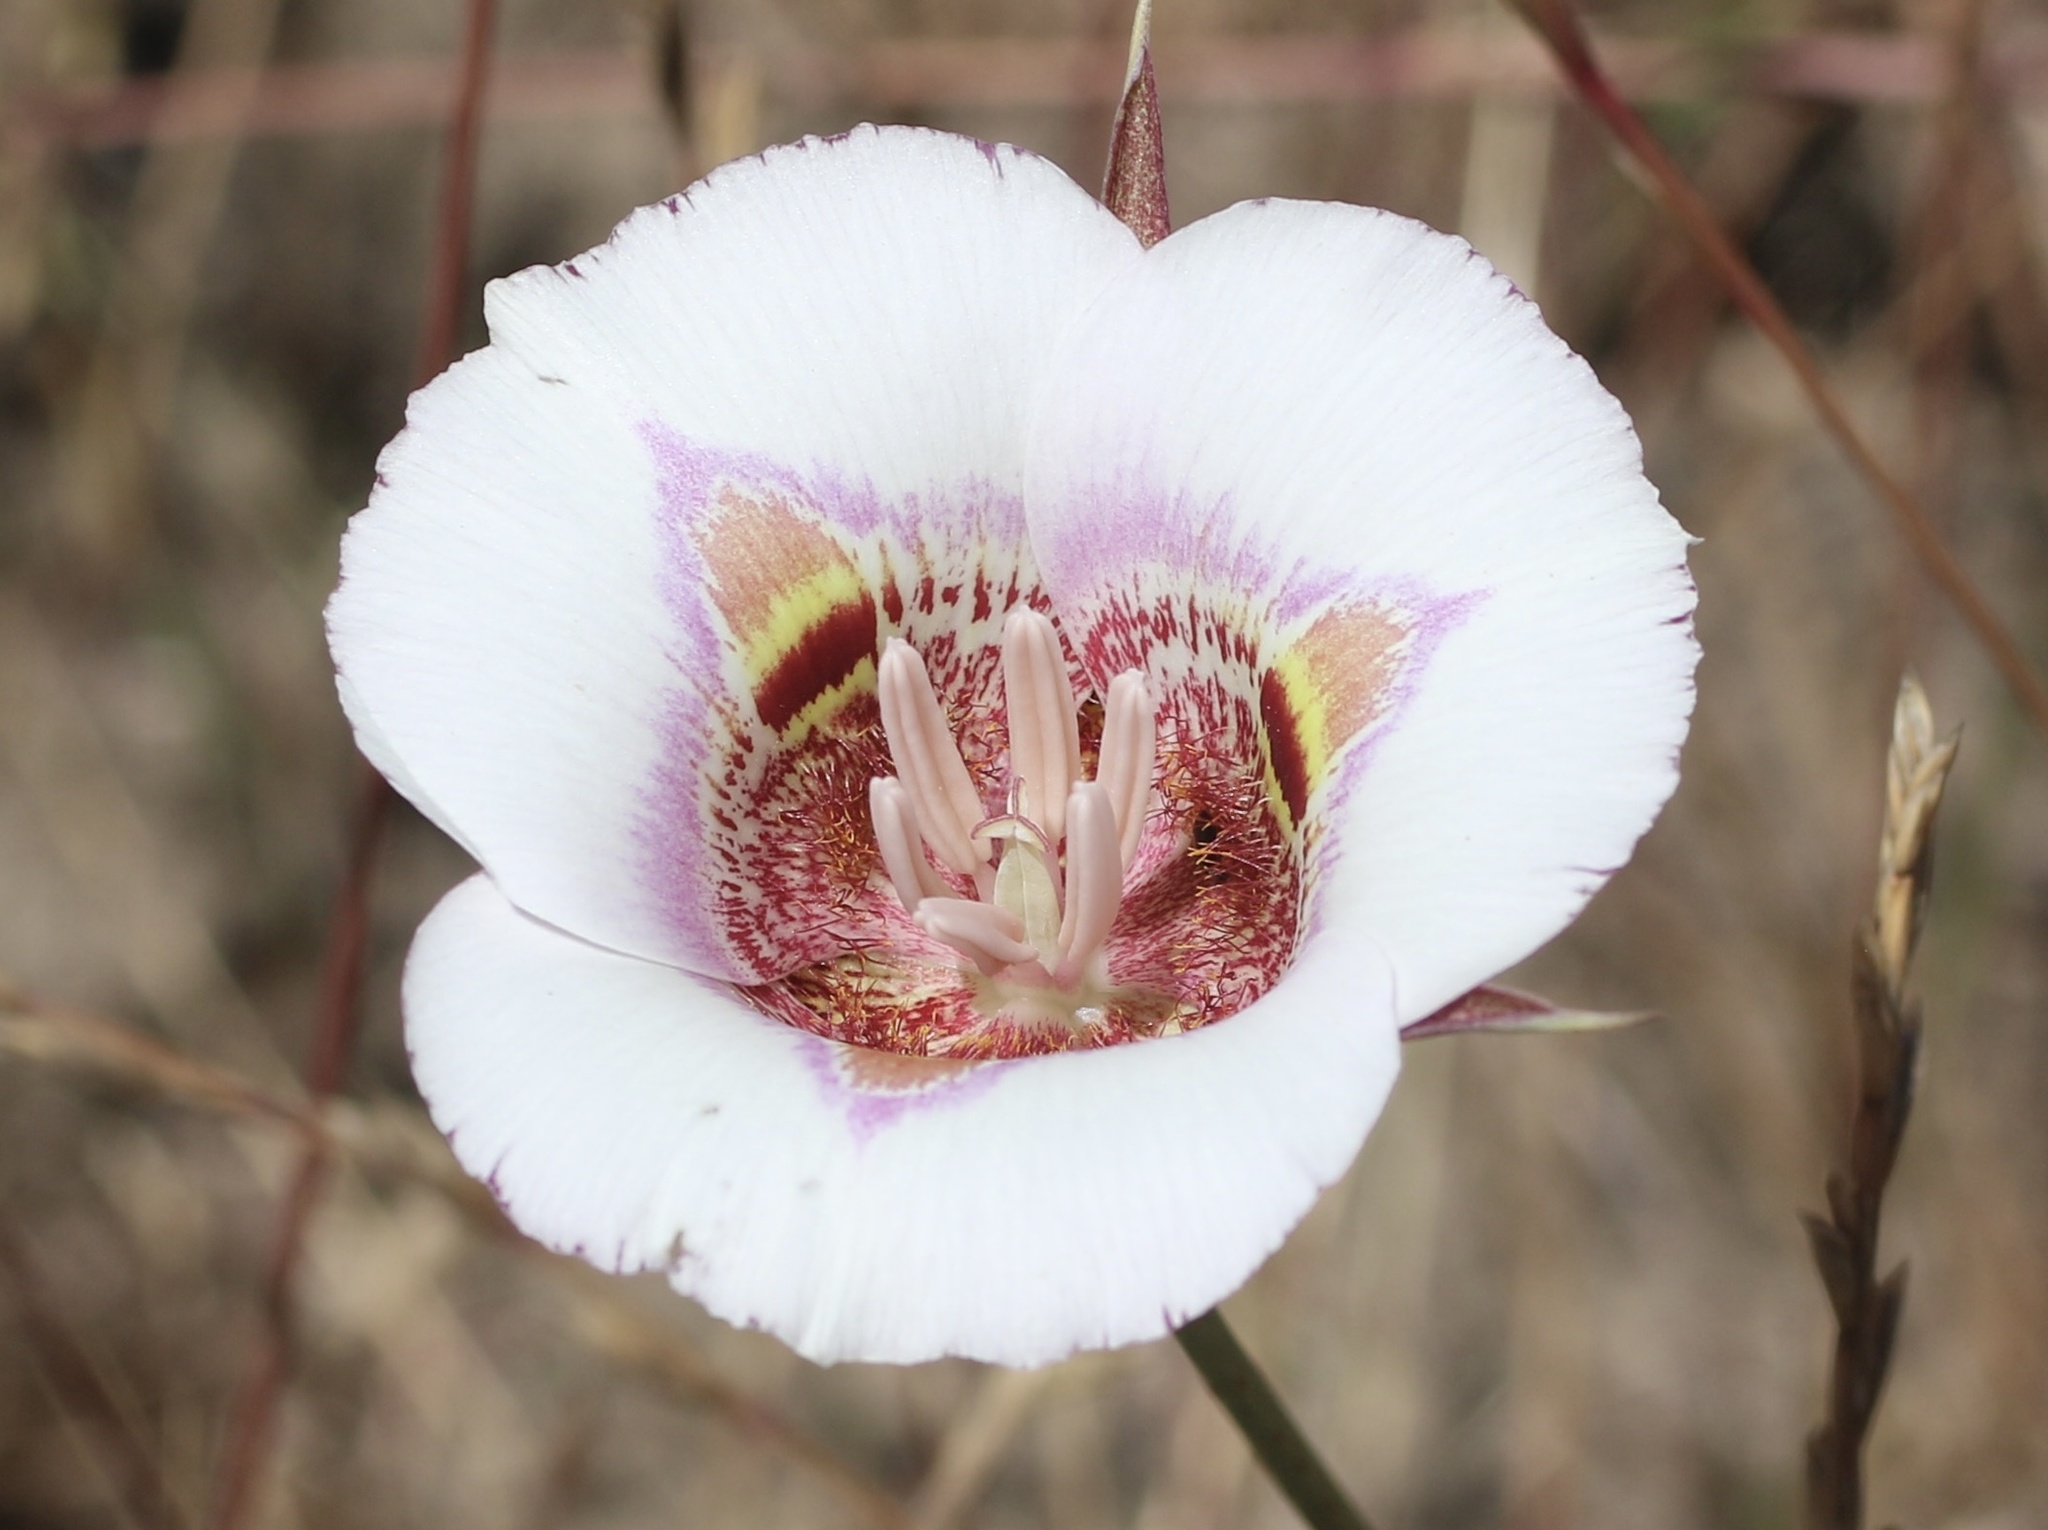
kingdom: Plantae
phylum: Tracheophyta
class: Liliopsida
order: Liliales
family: Liliaceae
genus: Calochortus
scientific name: Calochortus argillosus
